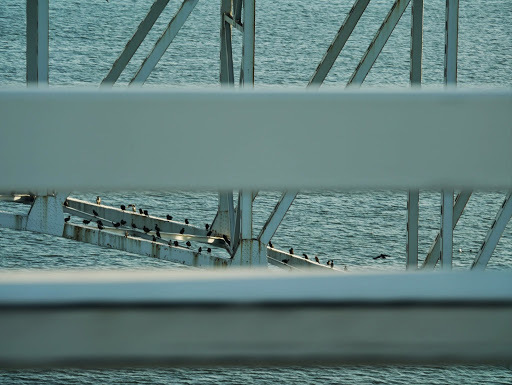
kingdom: Animalia
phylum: Chordata
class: Aves
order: Suliformes
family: Phalacrocoracidae
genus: Phalacrocorax
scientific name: Phalacrocorax auritus
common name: Double-crested cormorant
